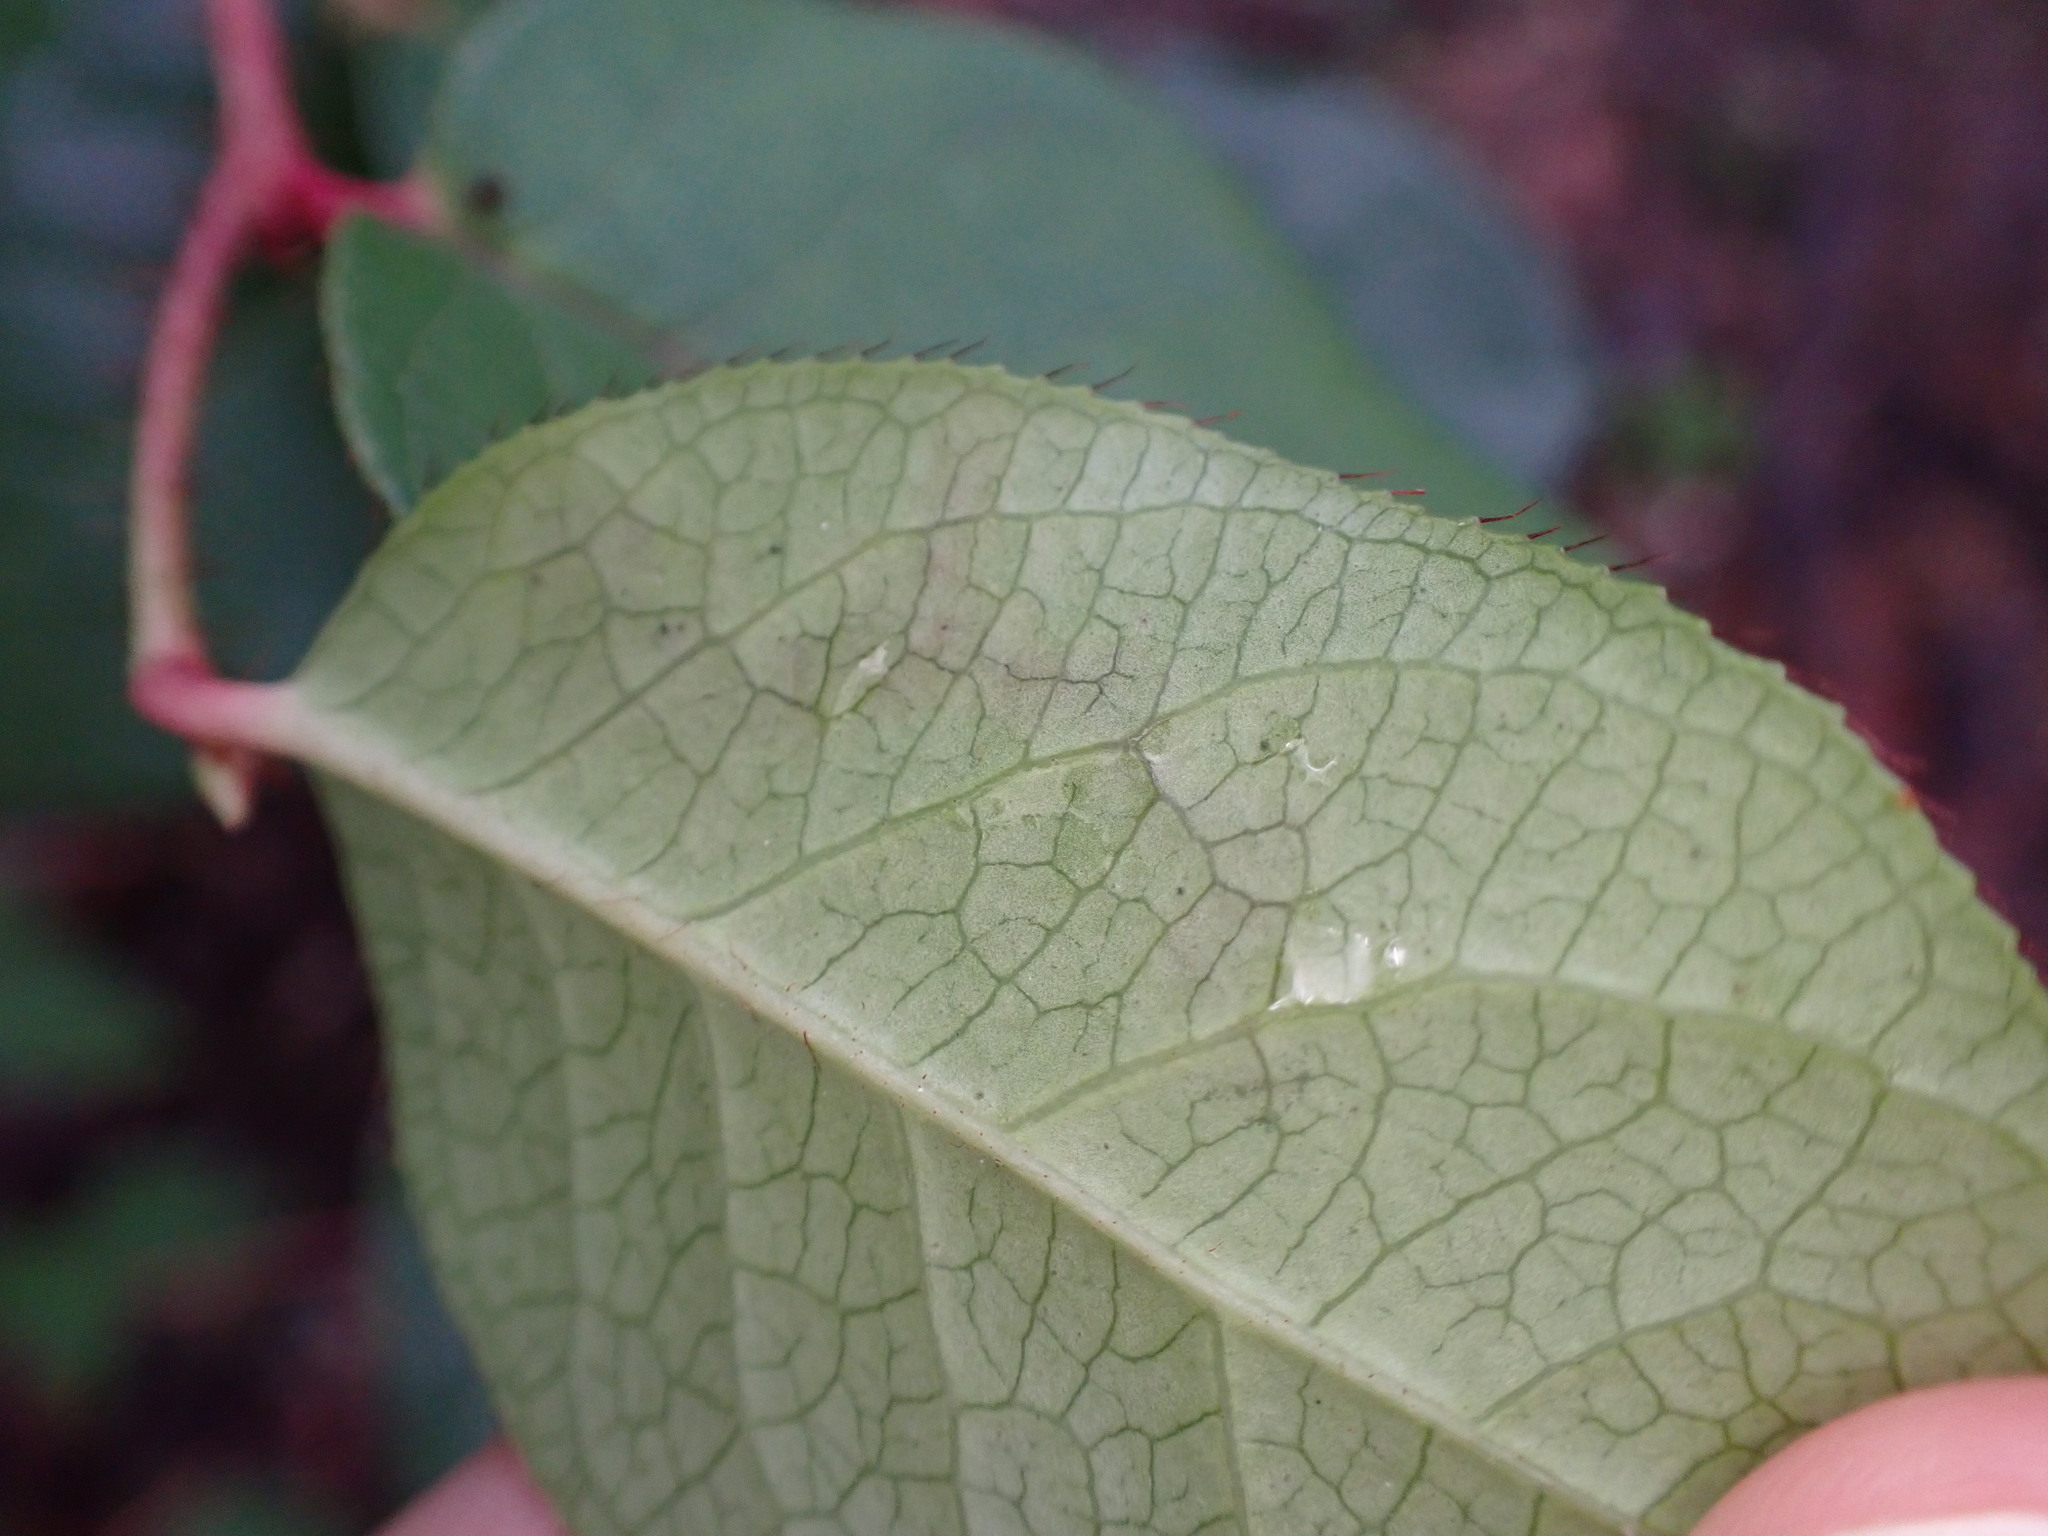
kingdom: Animalia
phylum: Arthropoda
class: Insecta
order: Lepidoptera
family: Gracillariidae
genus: Cameraria
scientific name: Cameraria gaultheriella
